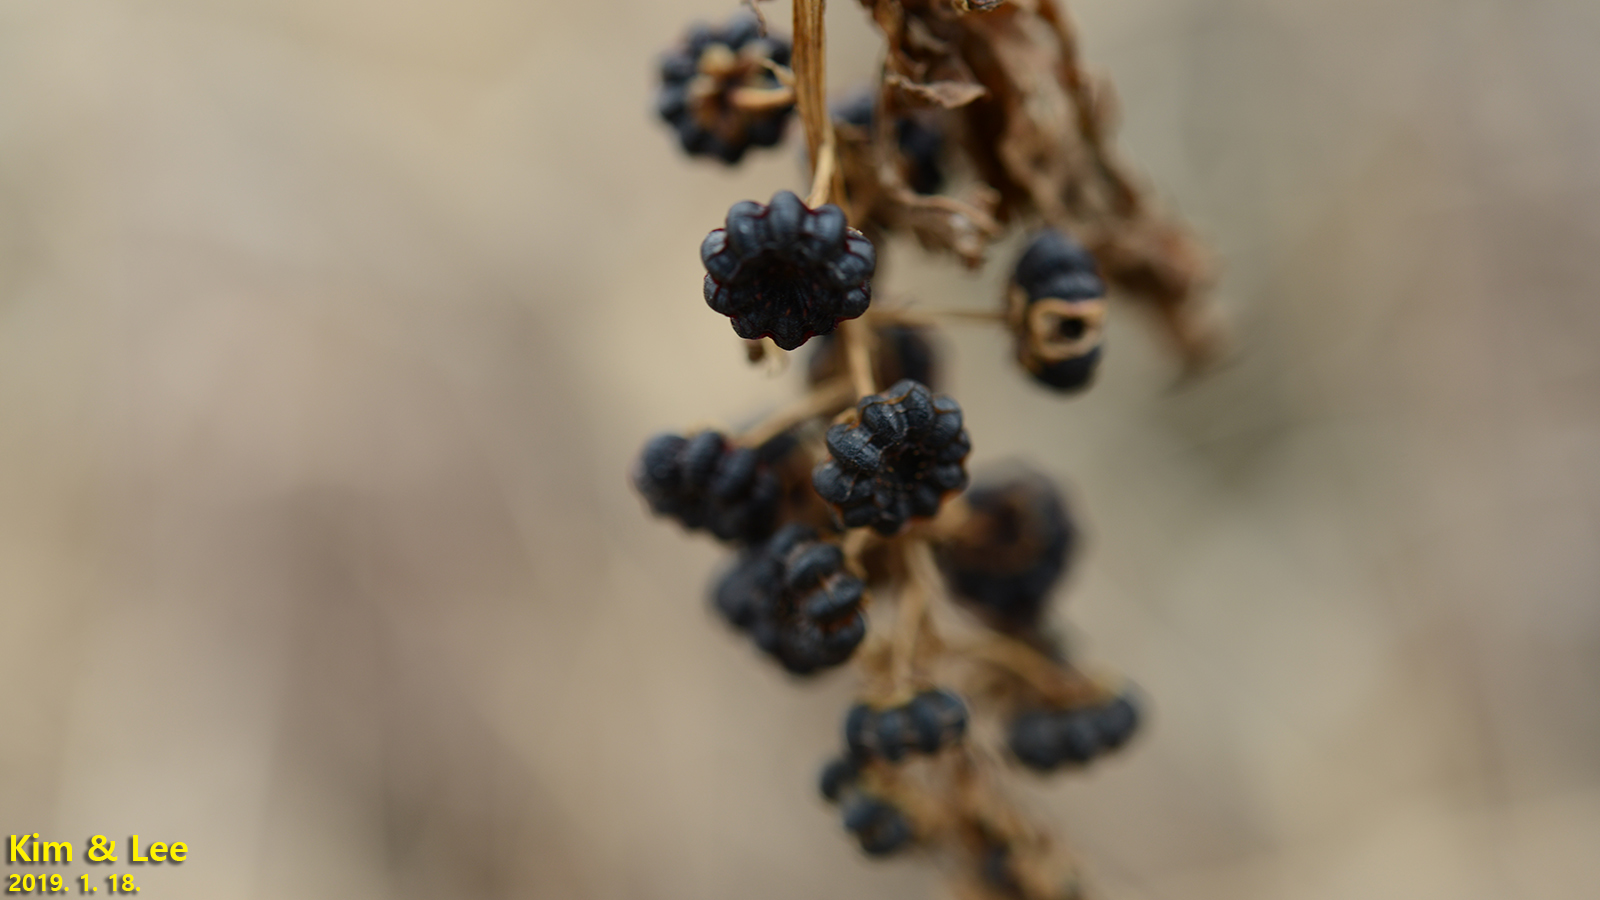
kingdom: Plantae
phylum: Tracheophyta
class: Magnoliopsida
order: Caryophyllales
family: Phytolaccaceae
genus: Phytolacca
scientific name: Phytolacca americana
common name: American pokeweed
